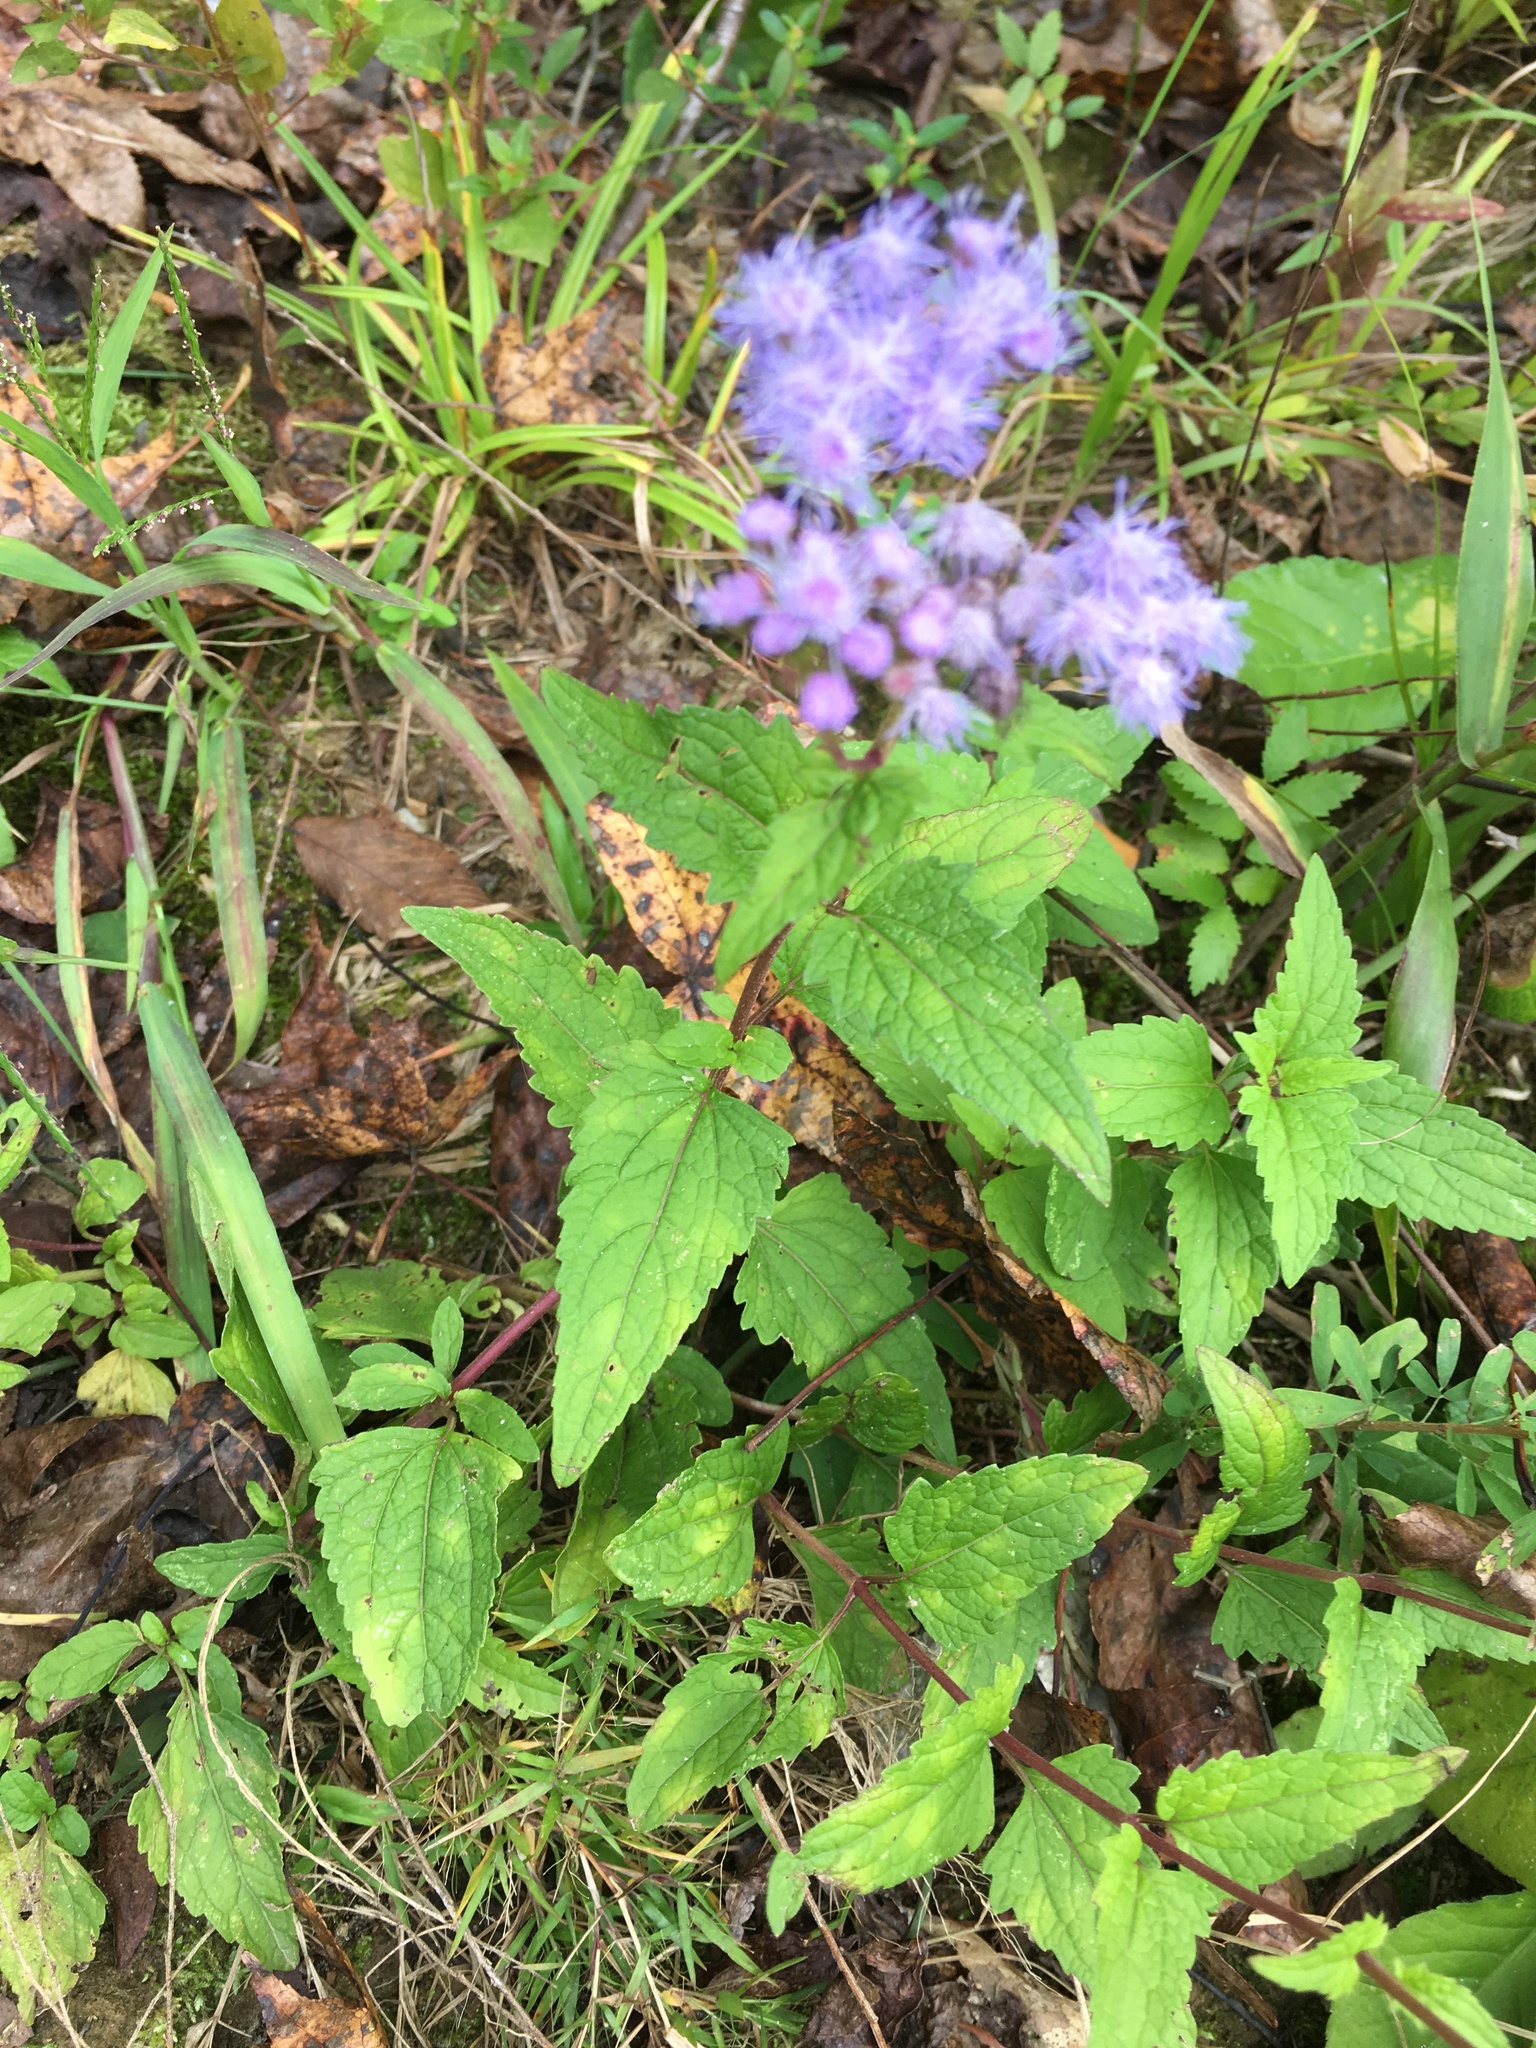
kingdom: Plantae
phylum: Tracheophyta
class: Magnoliopsida
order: Asterales
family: Asteraceae
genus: Conoclinium
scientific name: Conoclinium coelestinum
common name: Blue mistflower
